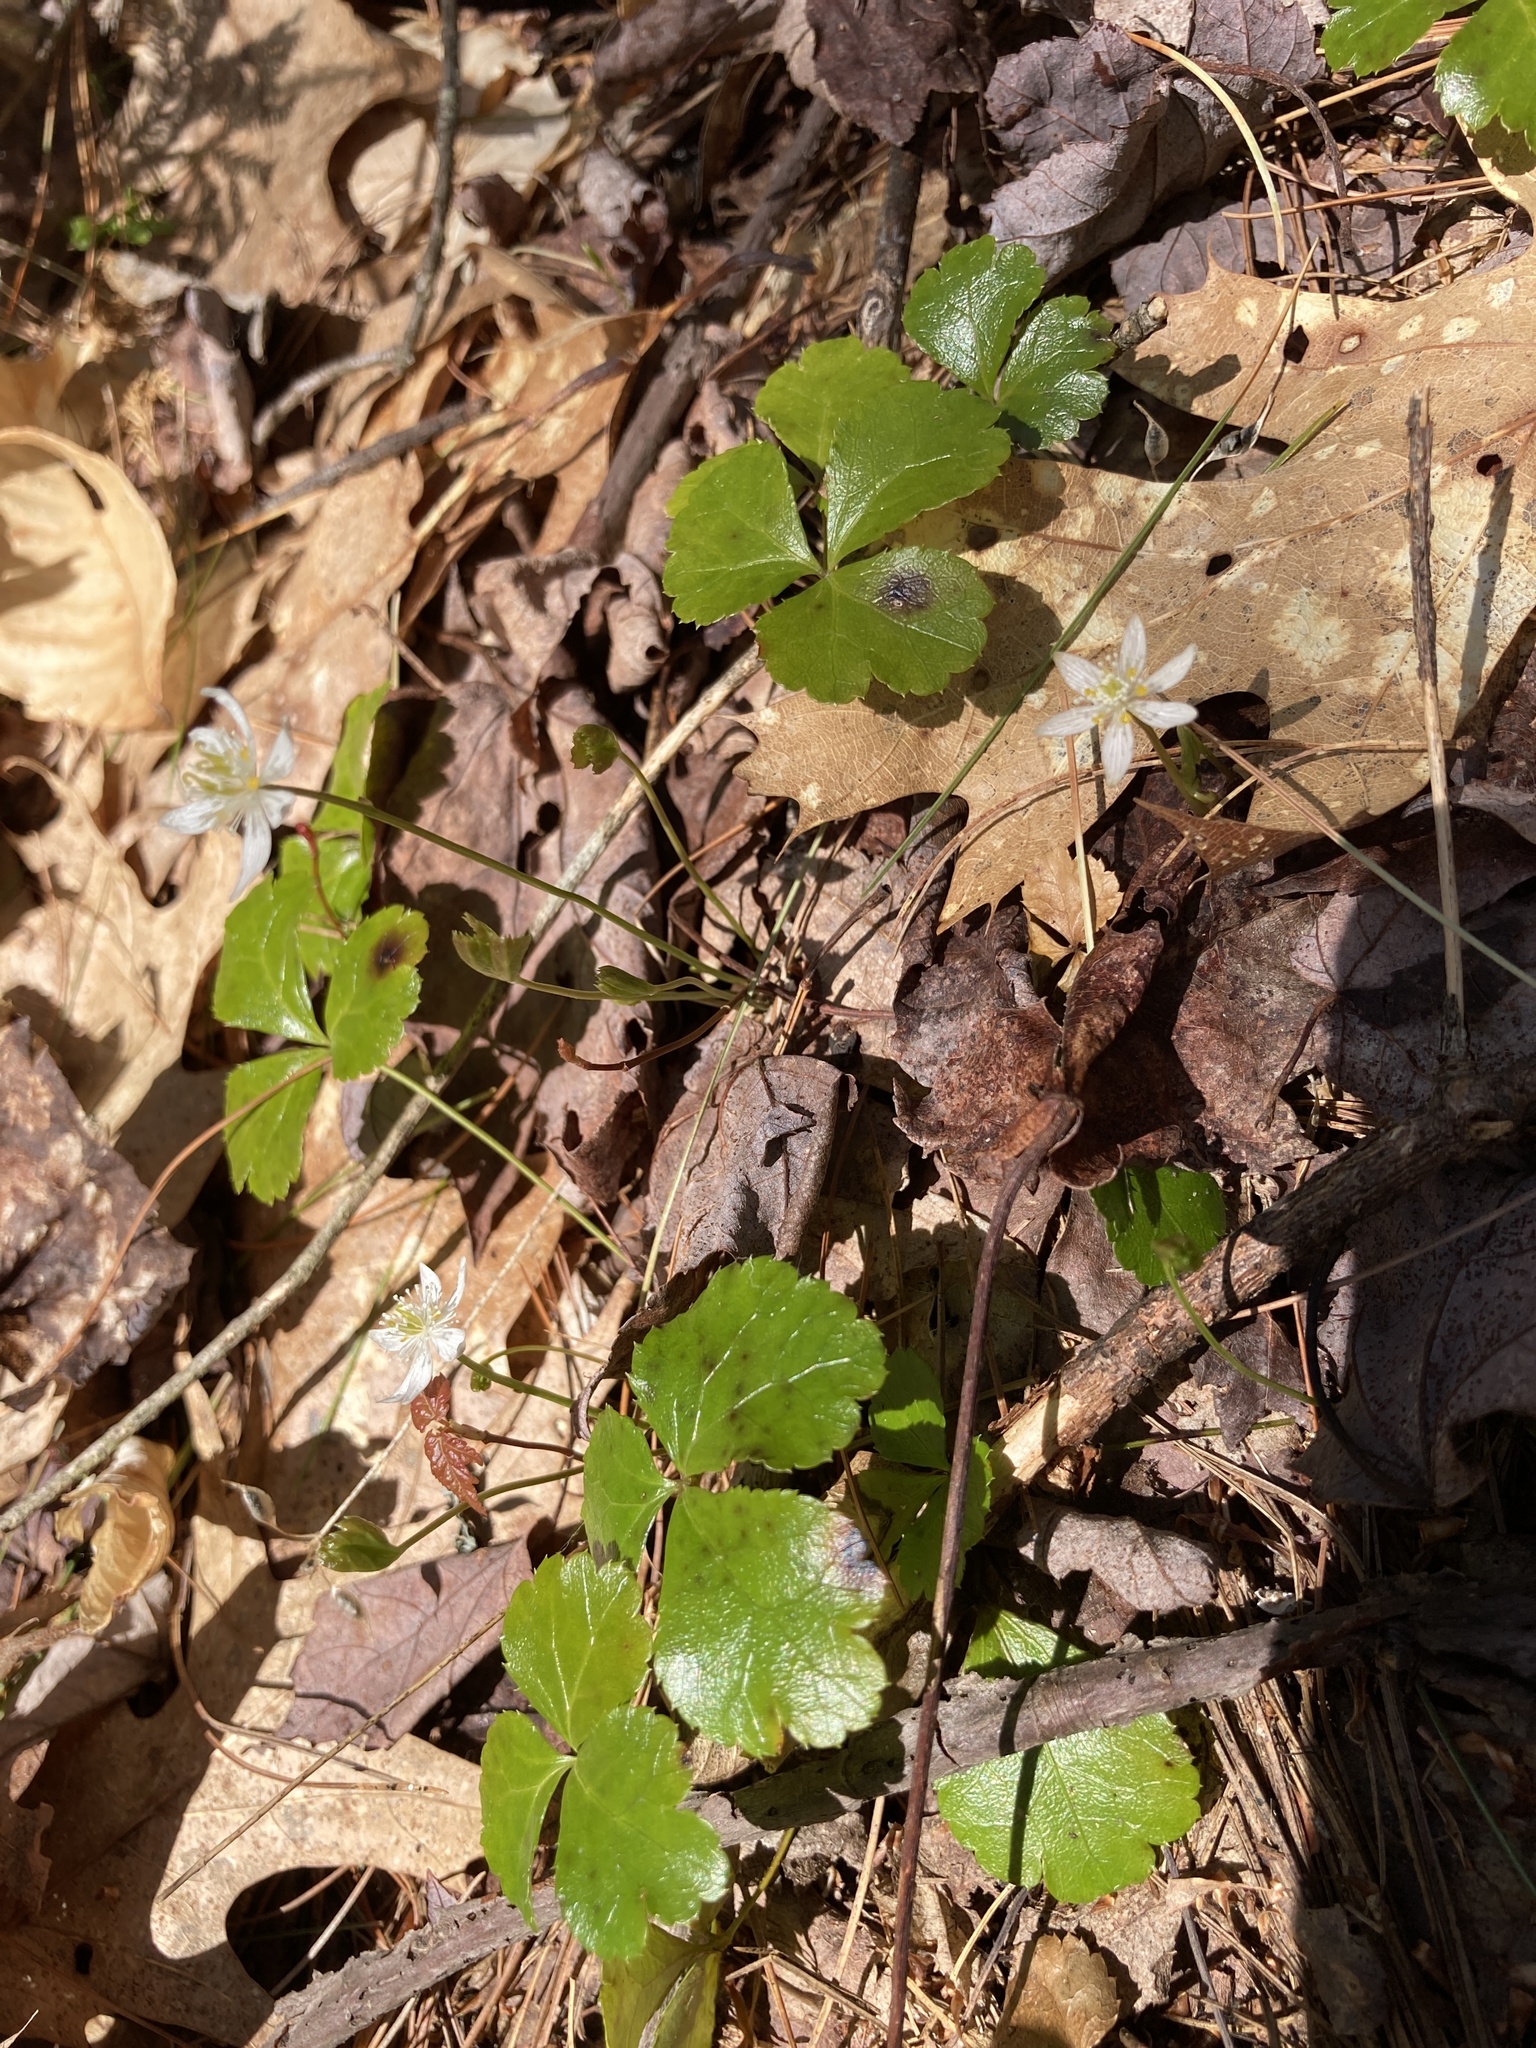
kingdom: Plantae
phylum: Tracheophyta
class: Magnoliopsida
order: Ranunculales
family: Ranunculaceae
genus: Coptis
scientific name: Coptis trifolia
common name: Canker-root
